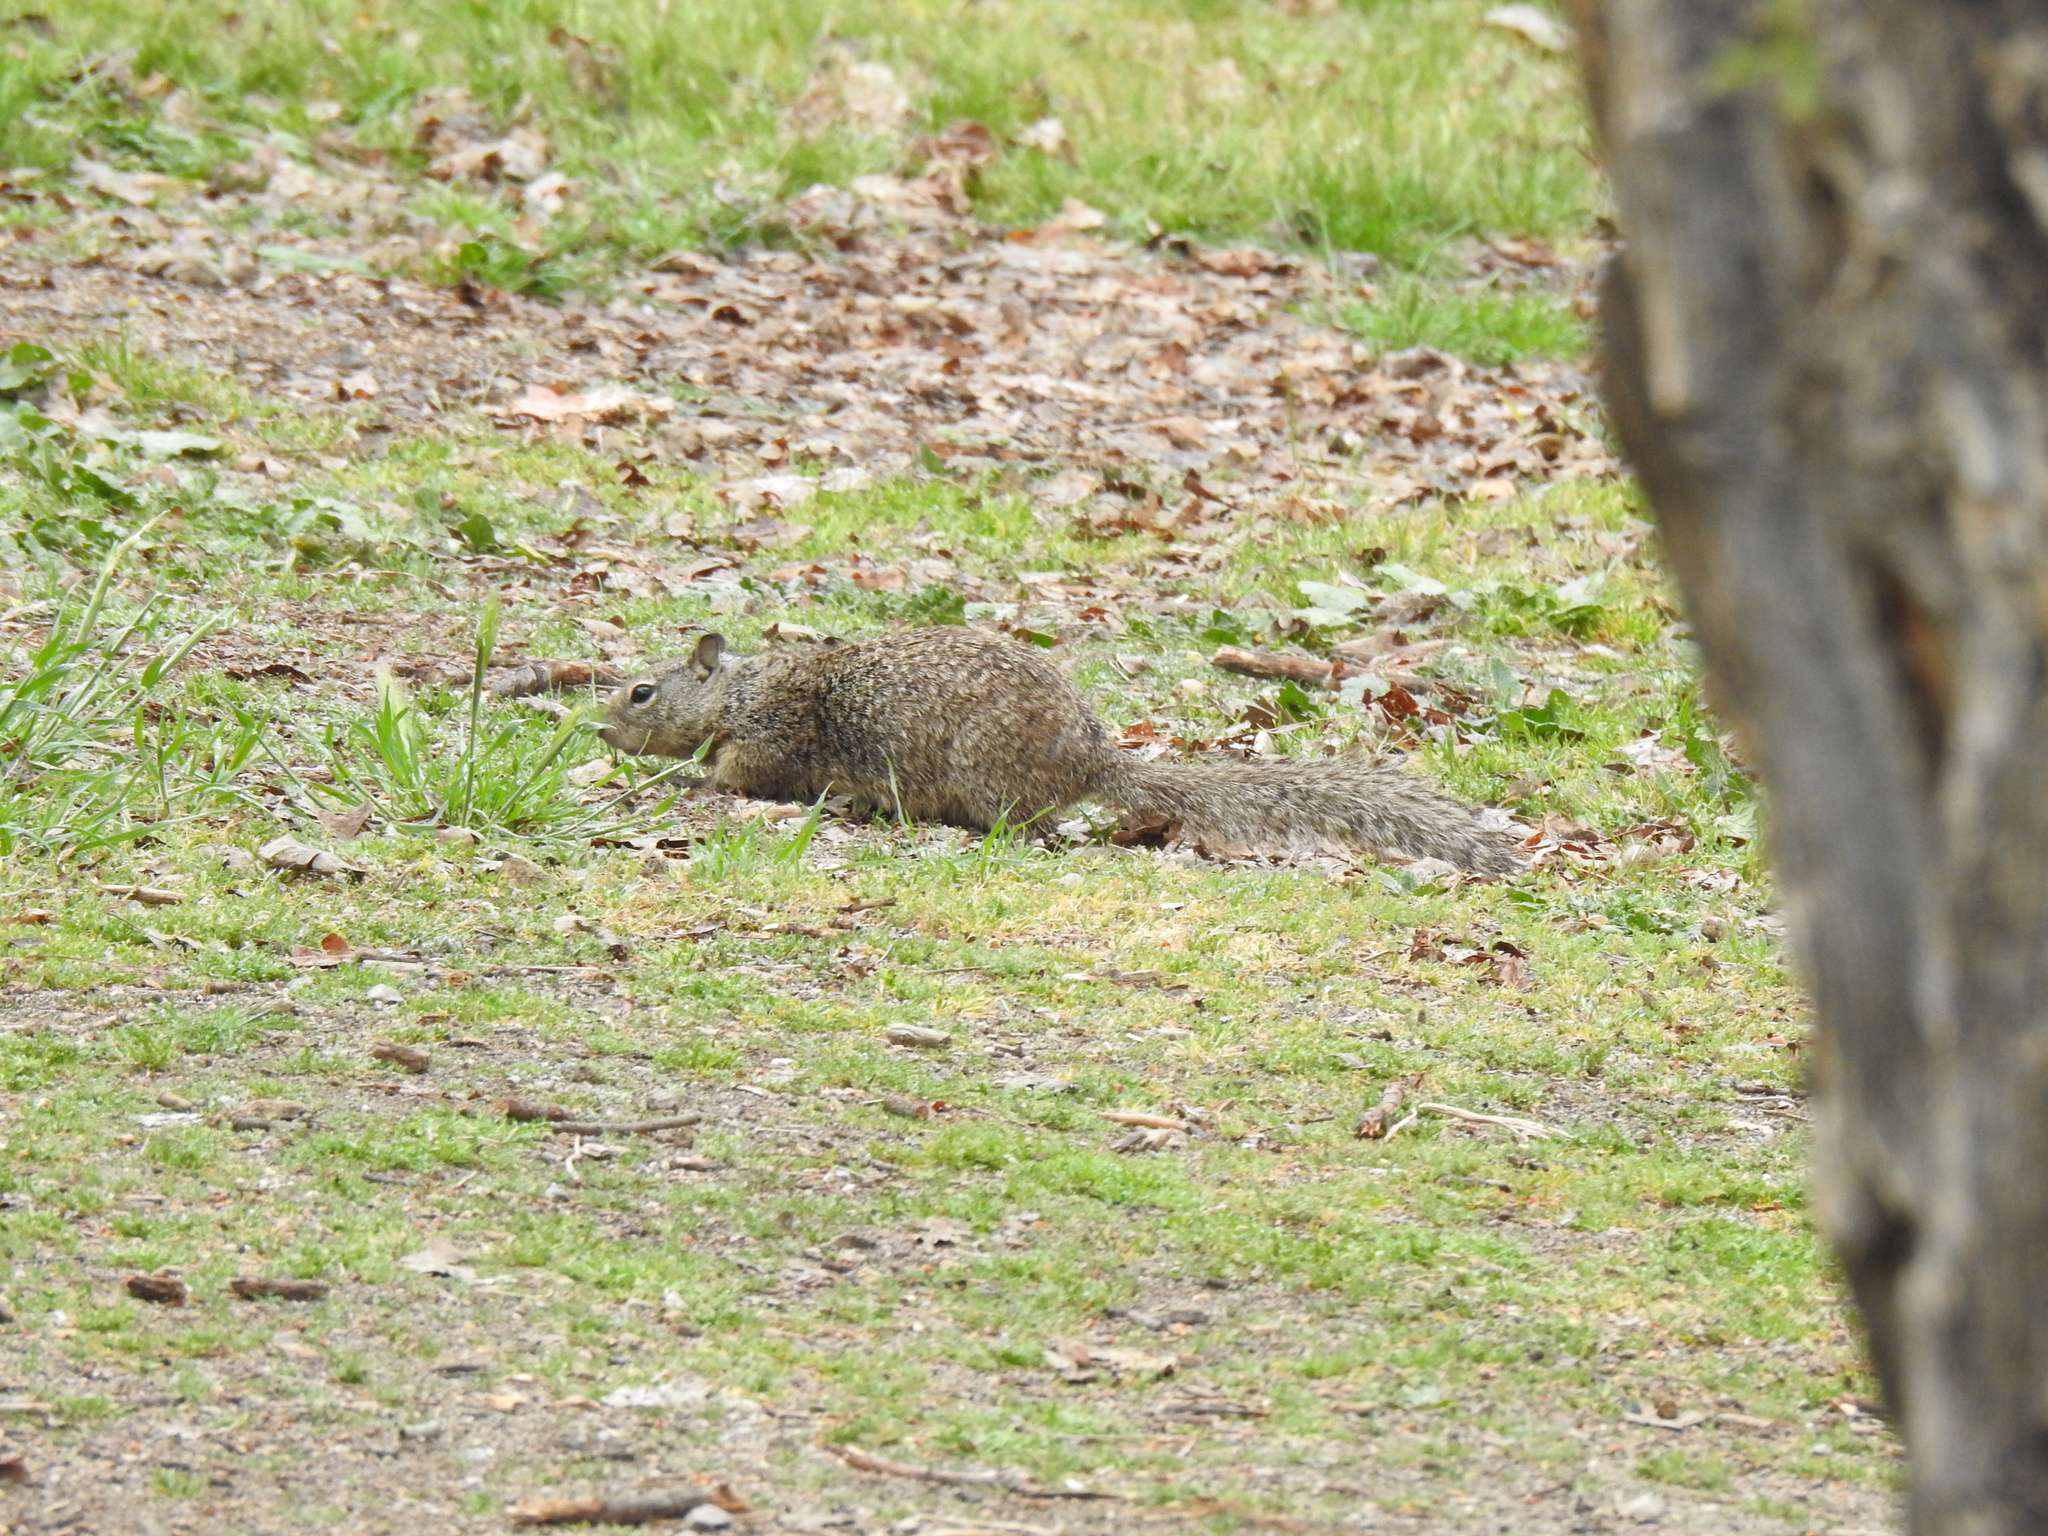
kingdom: Animalia
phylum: Chordata
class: Mammalia
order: Rodentia
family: Sciuridae
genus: Otospermophilus
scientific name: Otospermophilus beecheyi
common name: California ground squirrel
